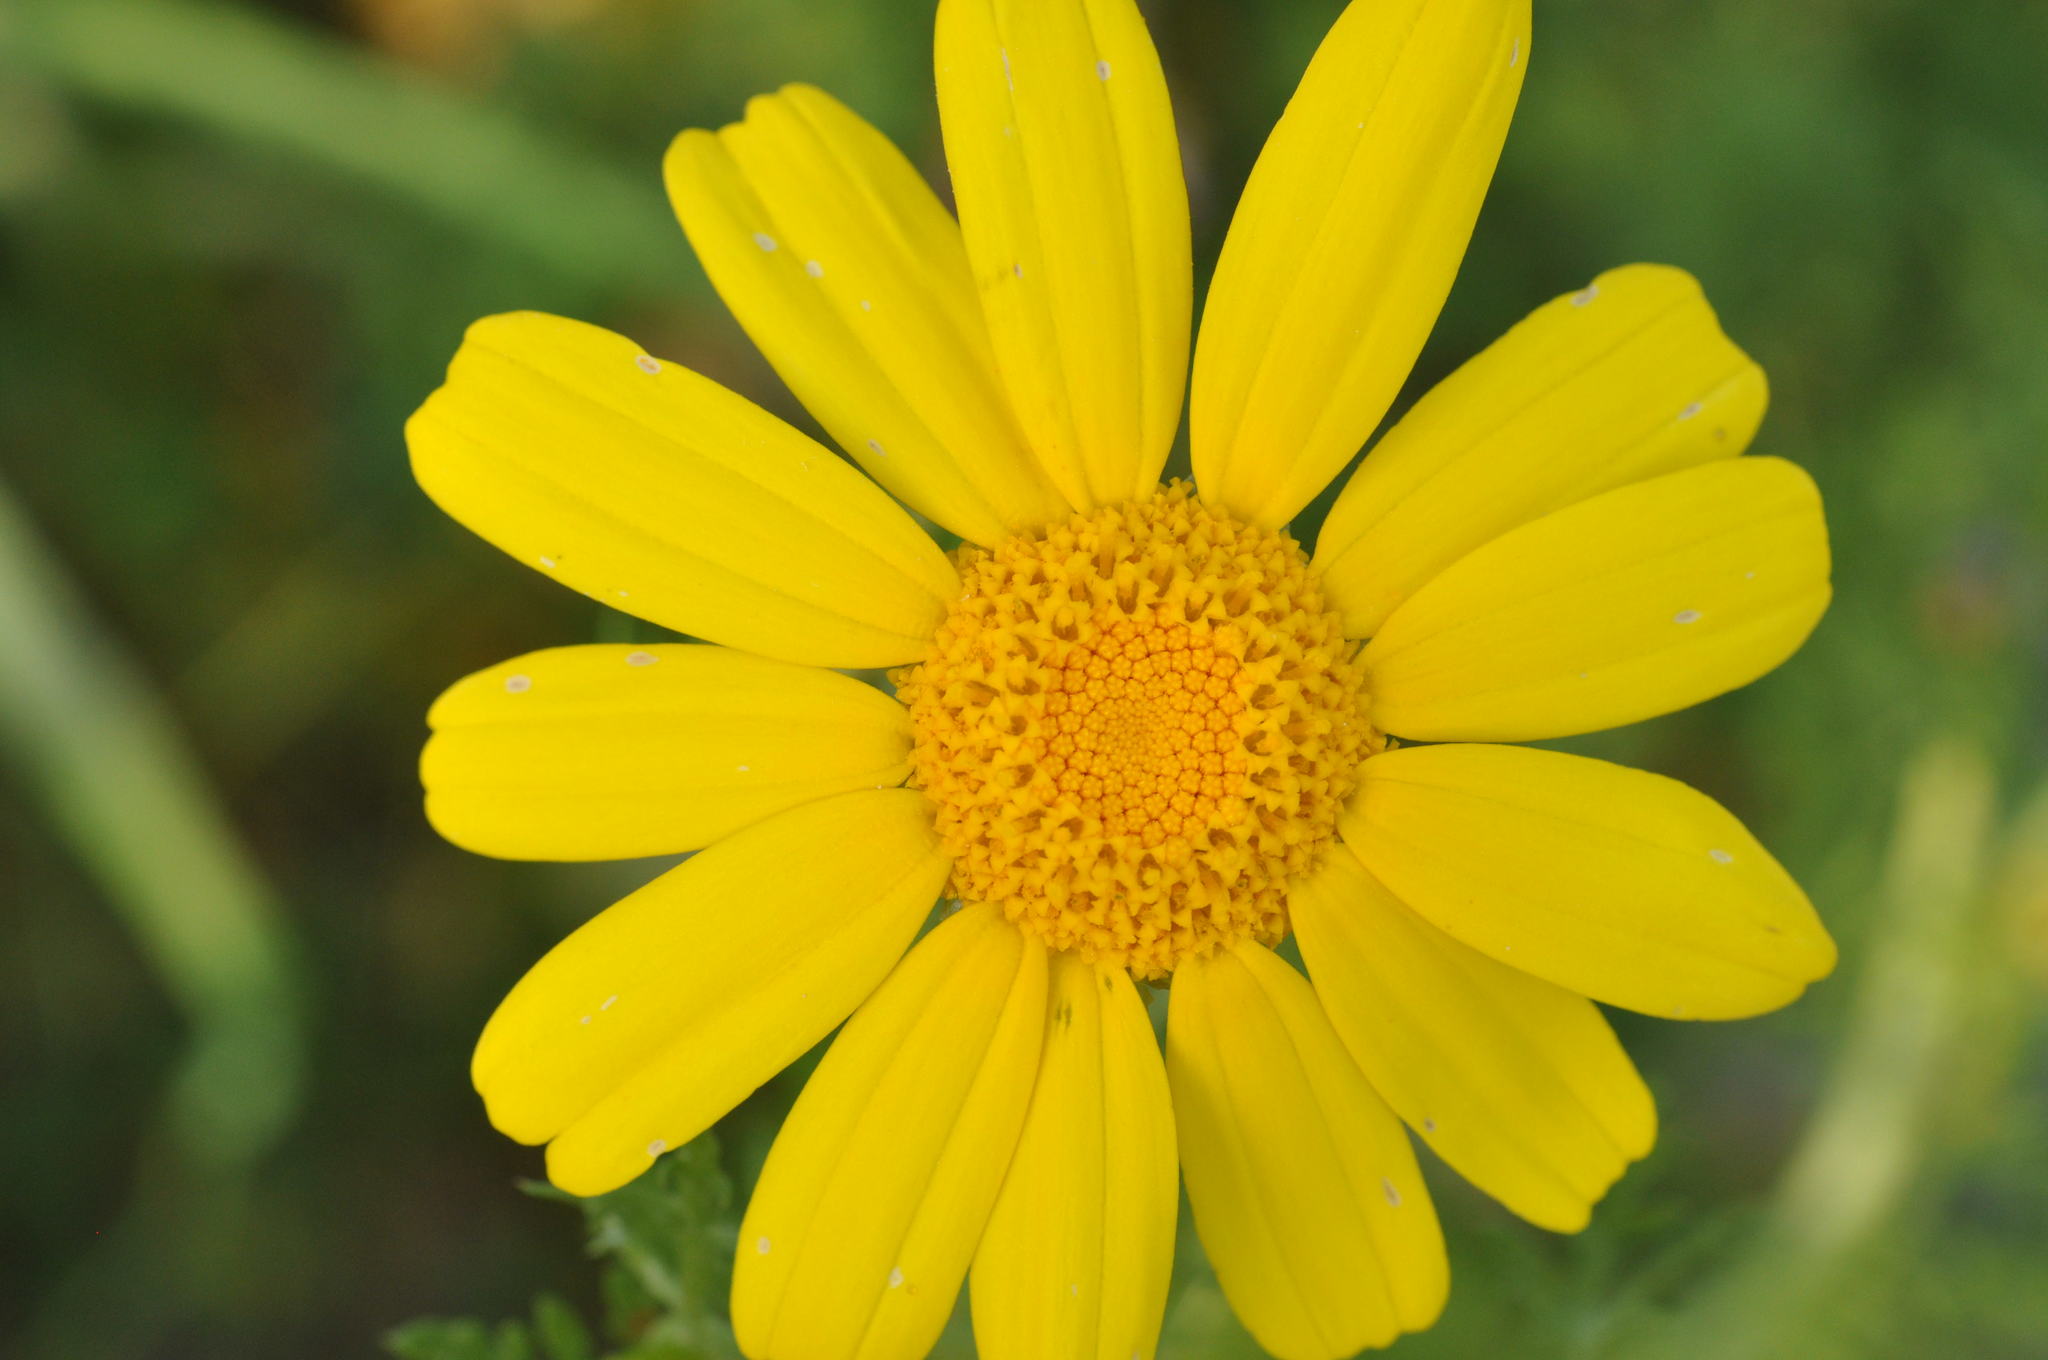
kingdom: Plantae
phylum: Tracheophyta
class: Magnoliopsida
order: Asterales
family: Asteraceae
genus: Glebionis
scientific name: Glebionis coronaria
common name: Crowndaisy
